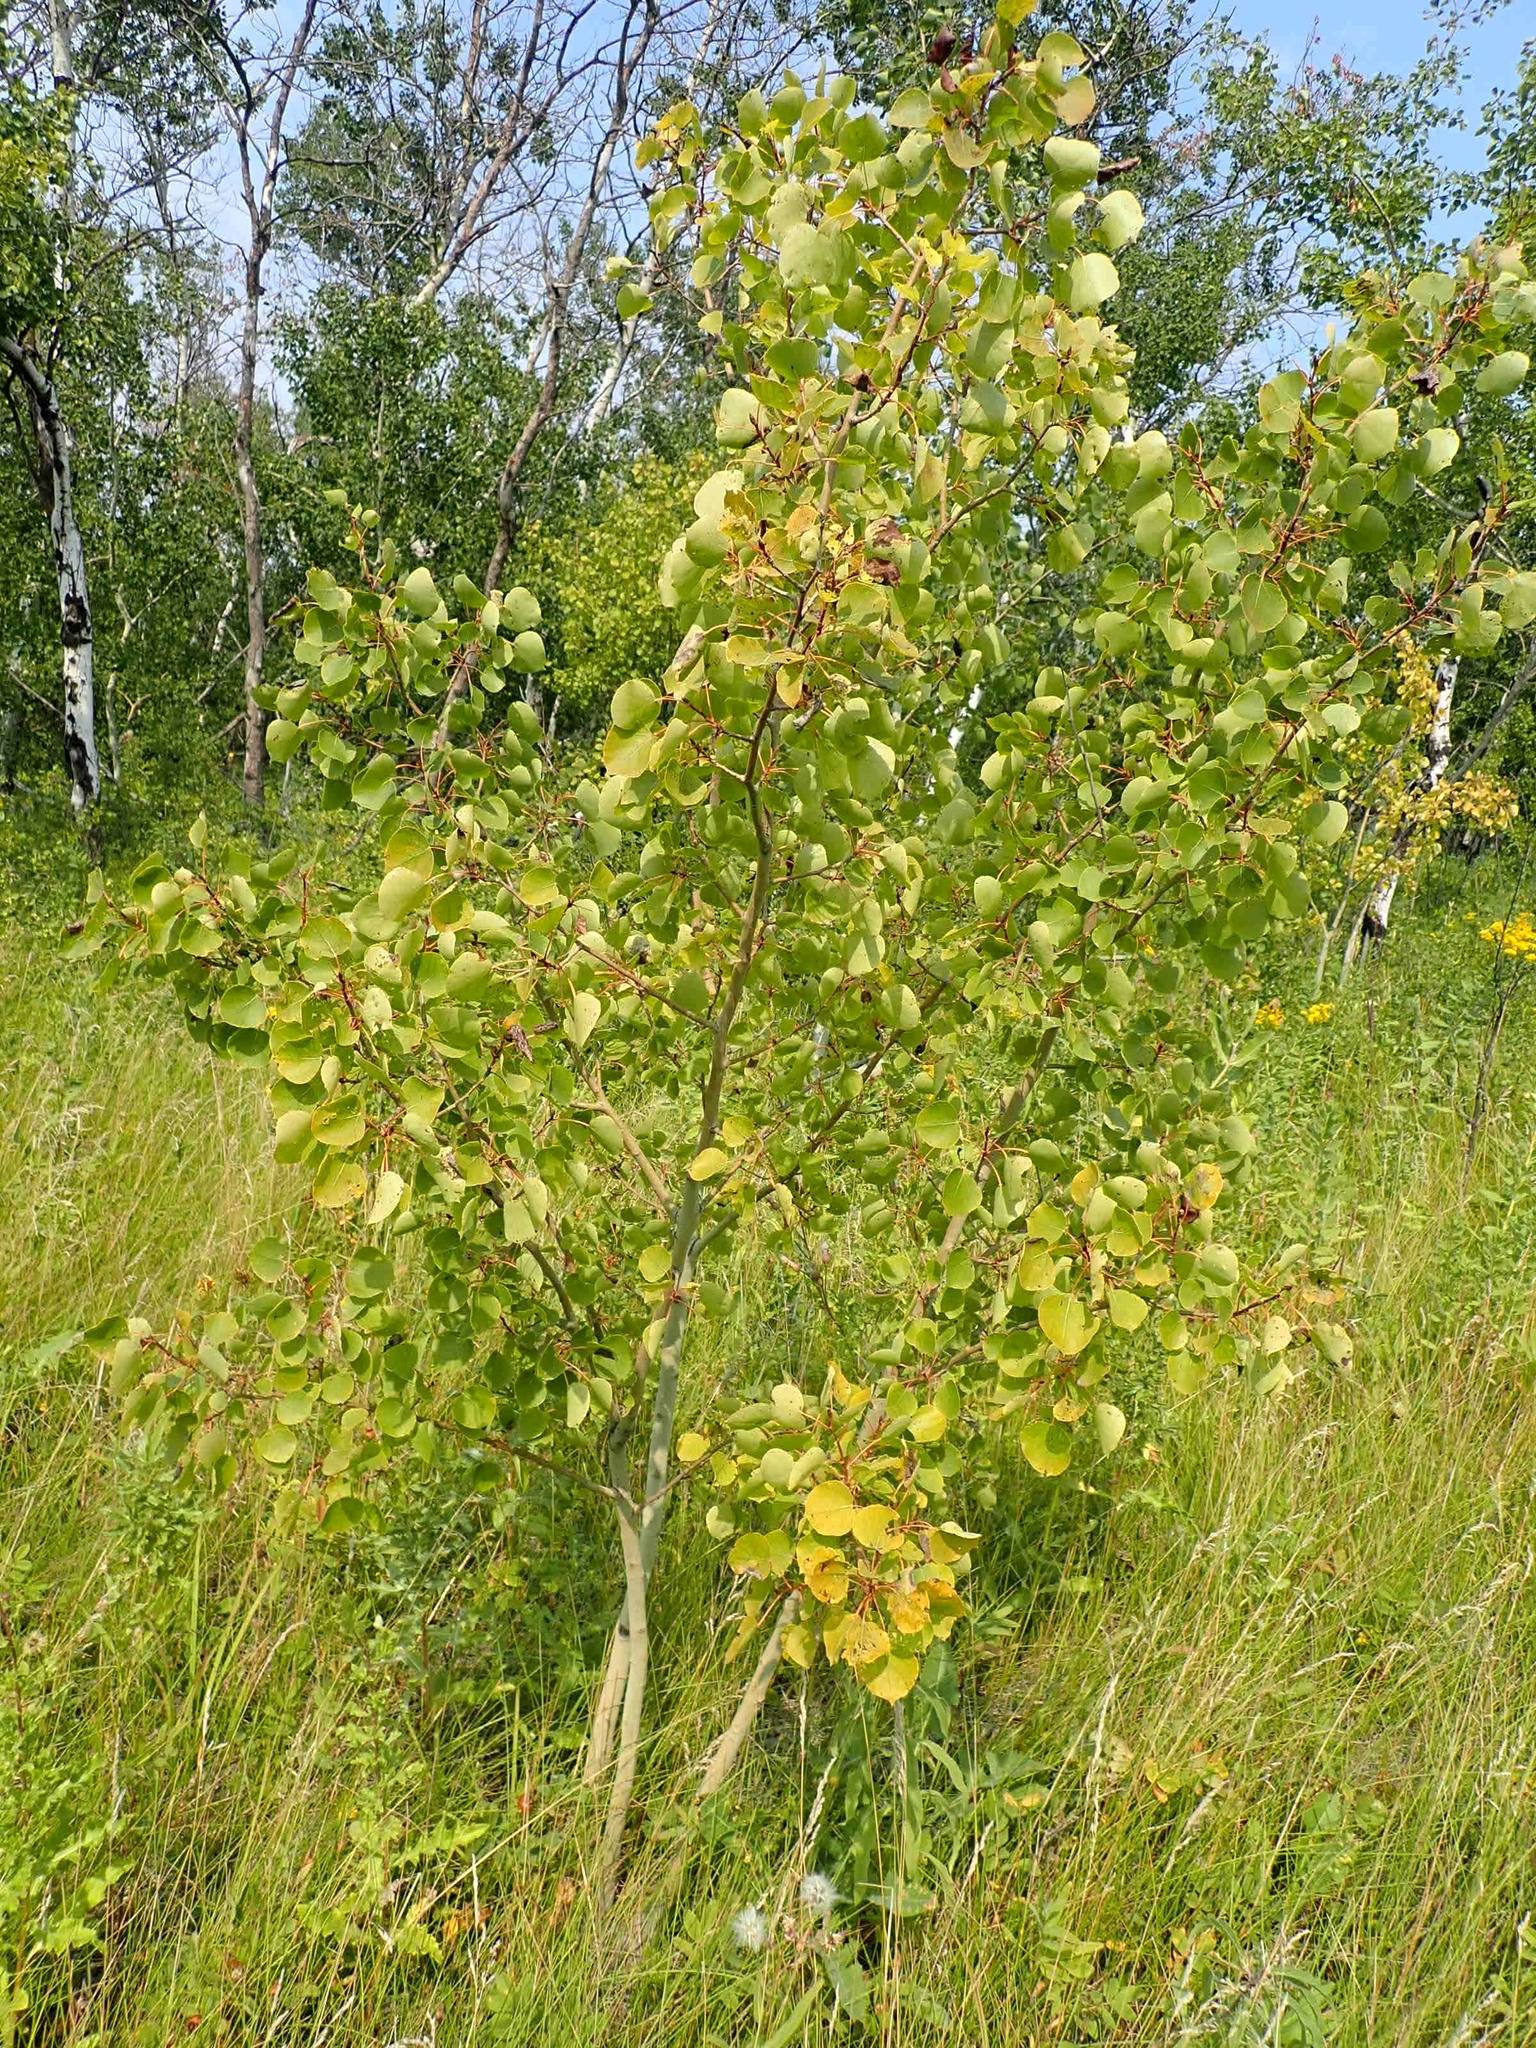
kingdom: Plantae
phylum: Tracheophyta
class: Magnoliopsida
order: Malpighiales
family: Salicaceae
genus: Populus
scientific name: Populus tremuloides
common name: Quaking aspen
